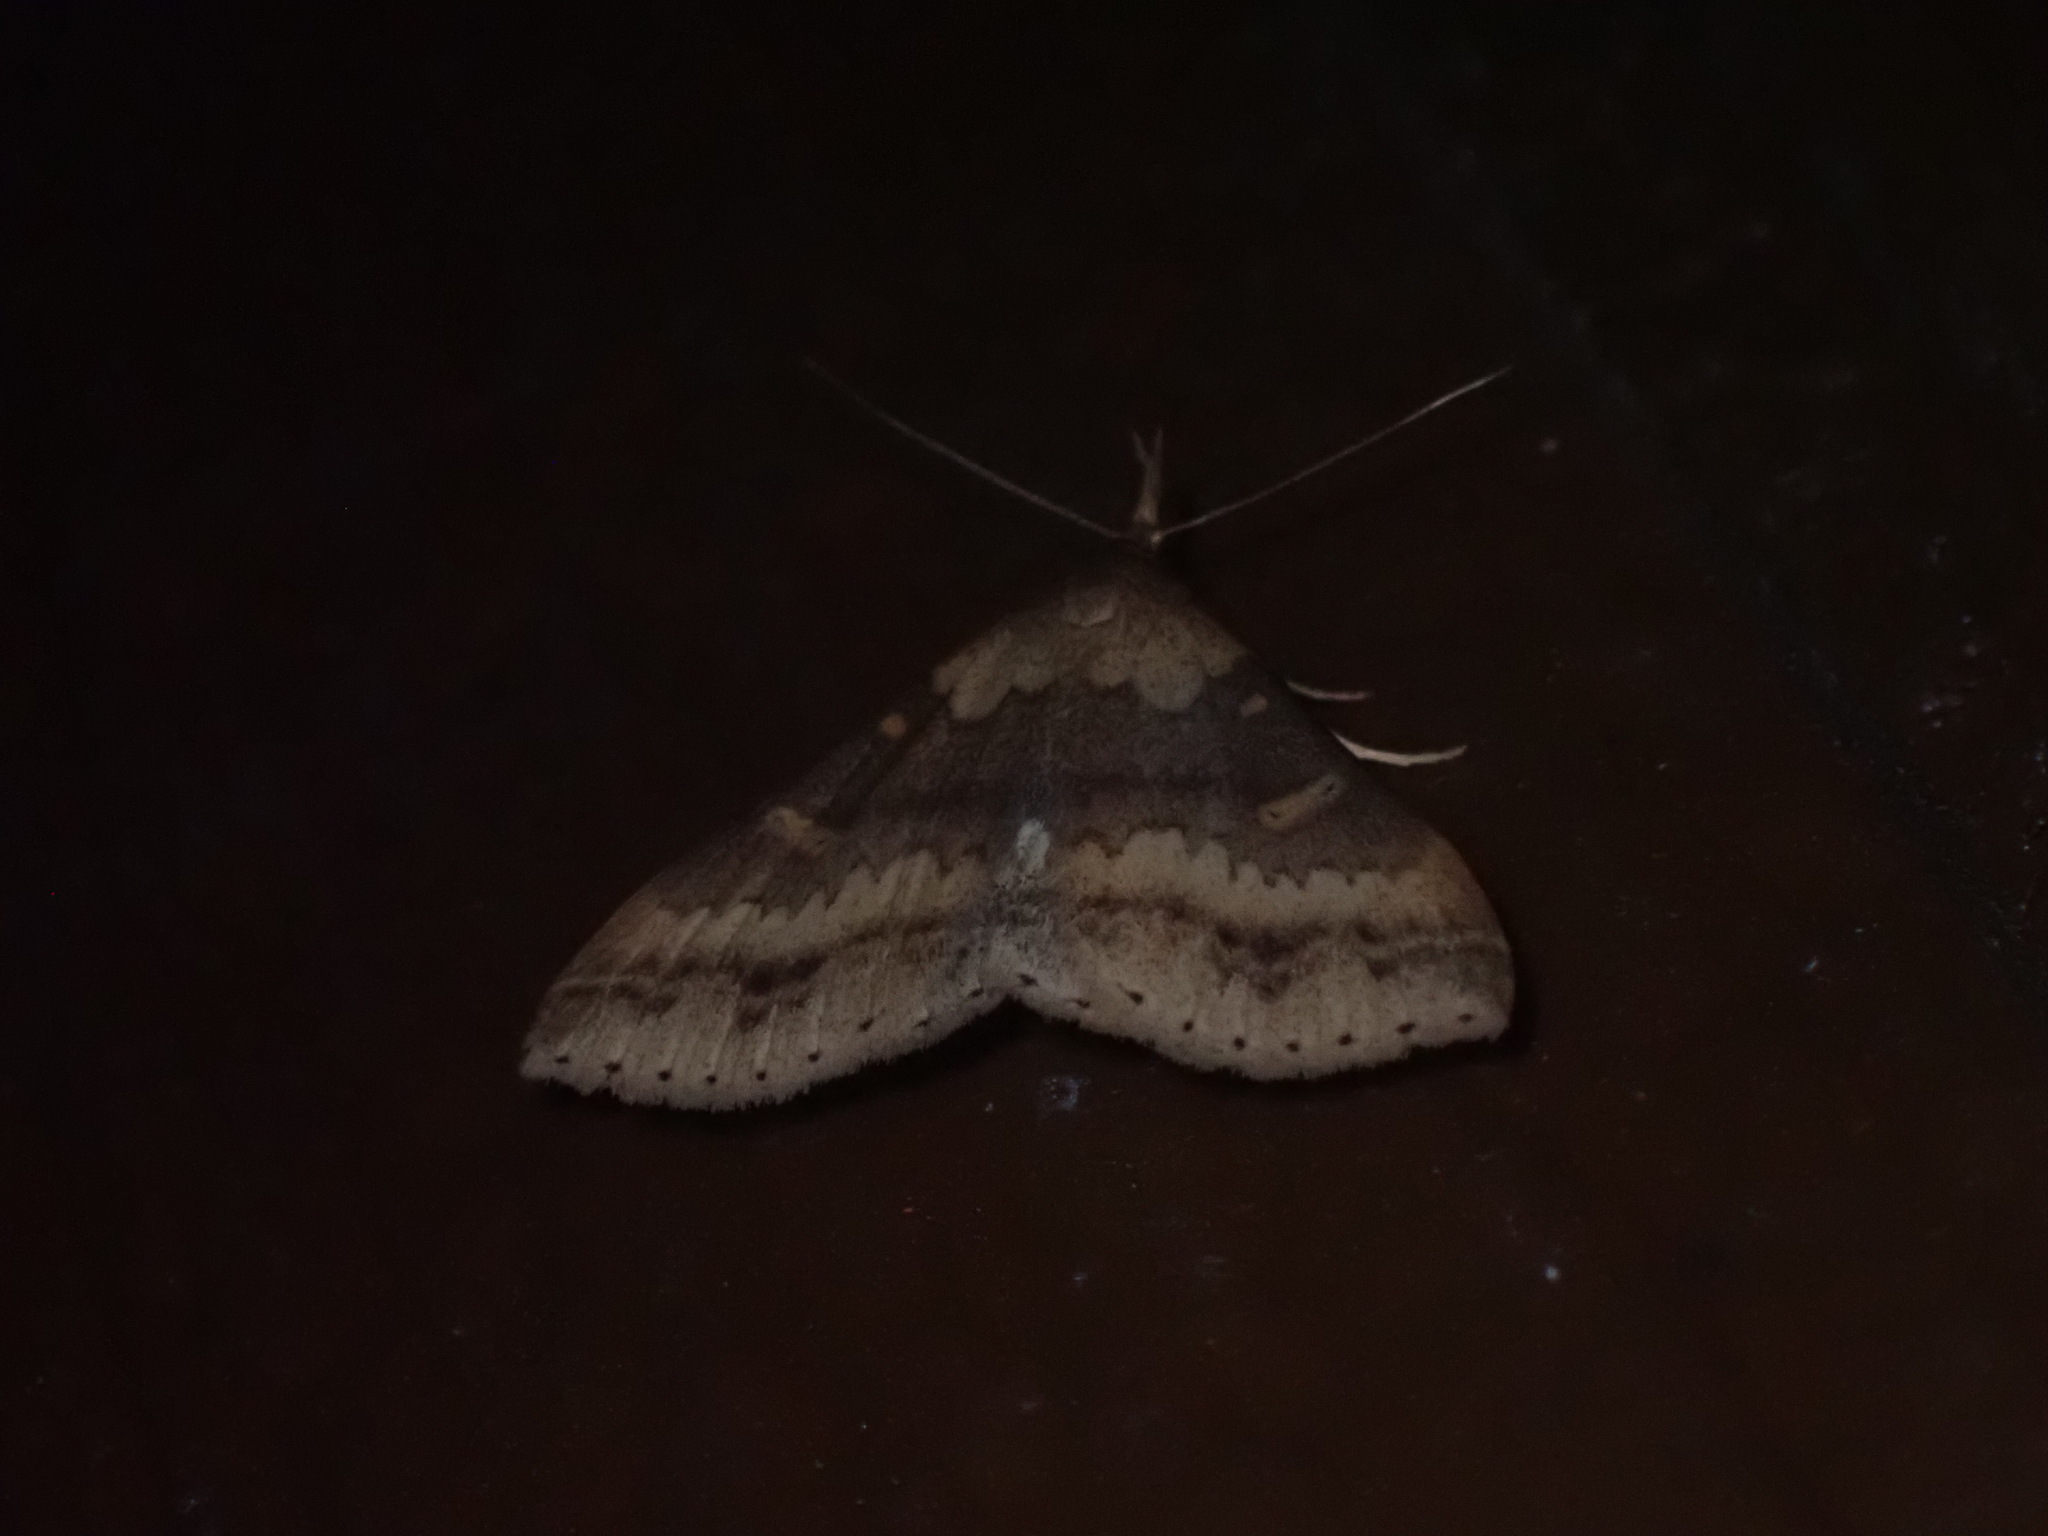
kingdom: Animalia
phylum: Arthropoda
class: Insecta
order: Lepidoptera
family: Erebidae
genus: Renia
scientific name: Renia discoloralis
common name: Discolored renia moth
